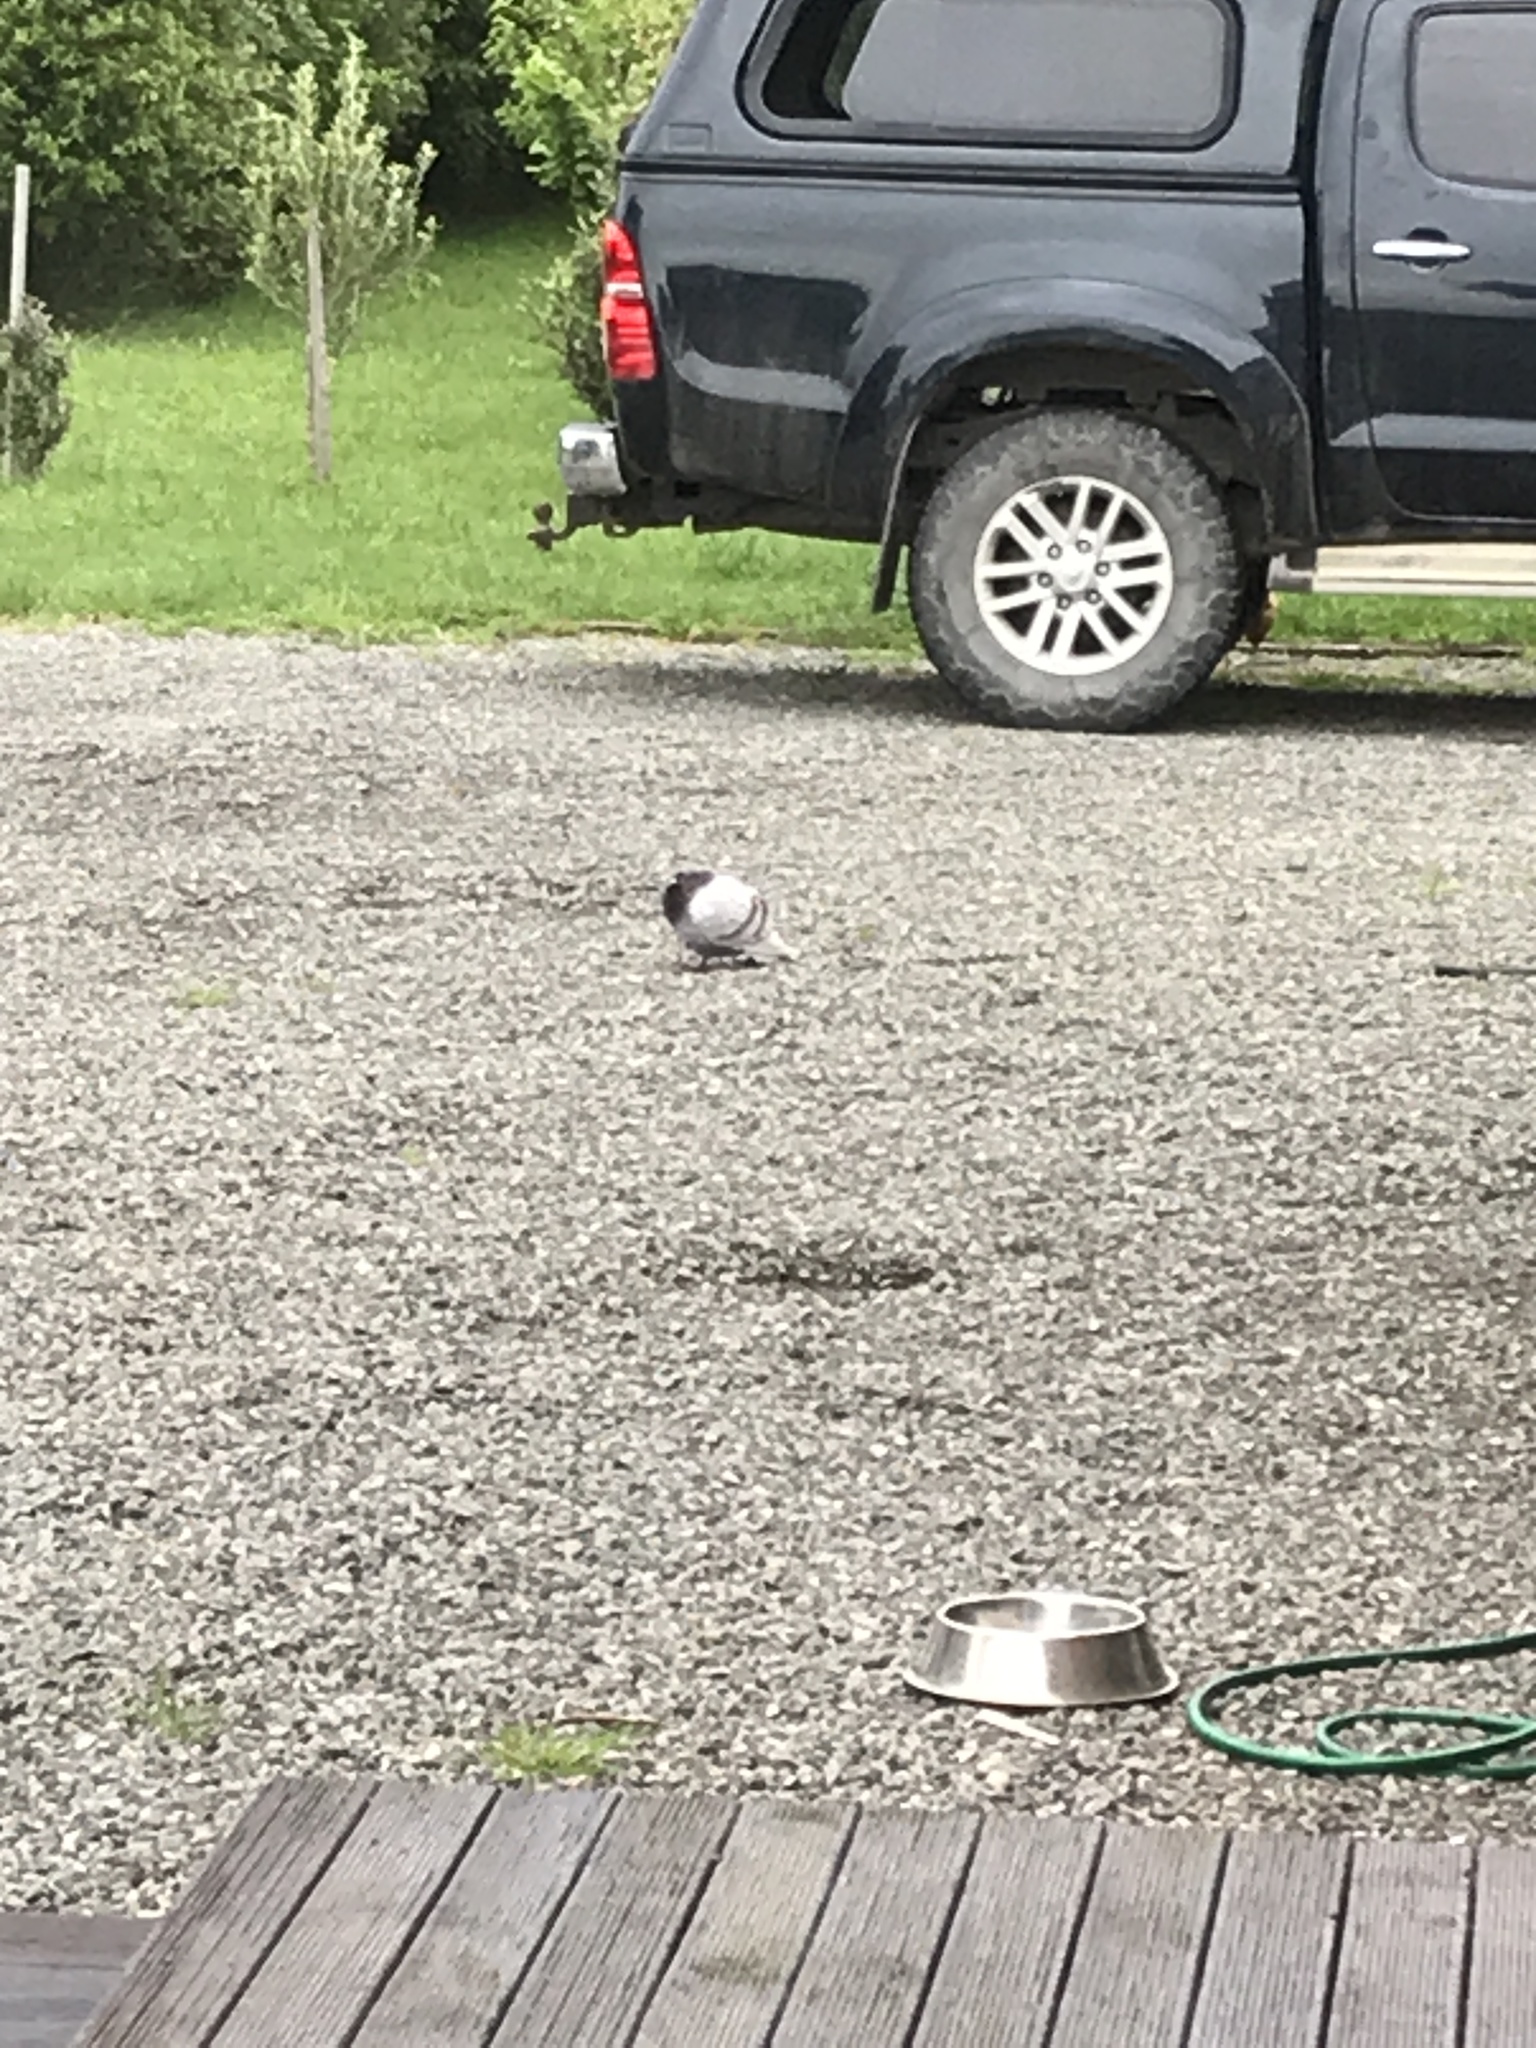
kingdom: Animalia
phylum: Chordata
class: Aves
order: Columbiformes
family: Columbidae
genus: Columba
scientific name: Columba livia
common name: Rock pigeon
